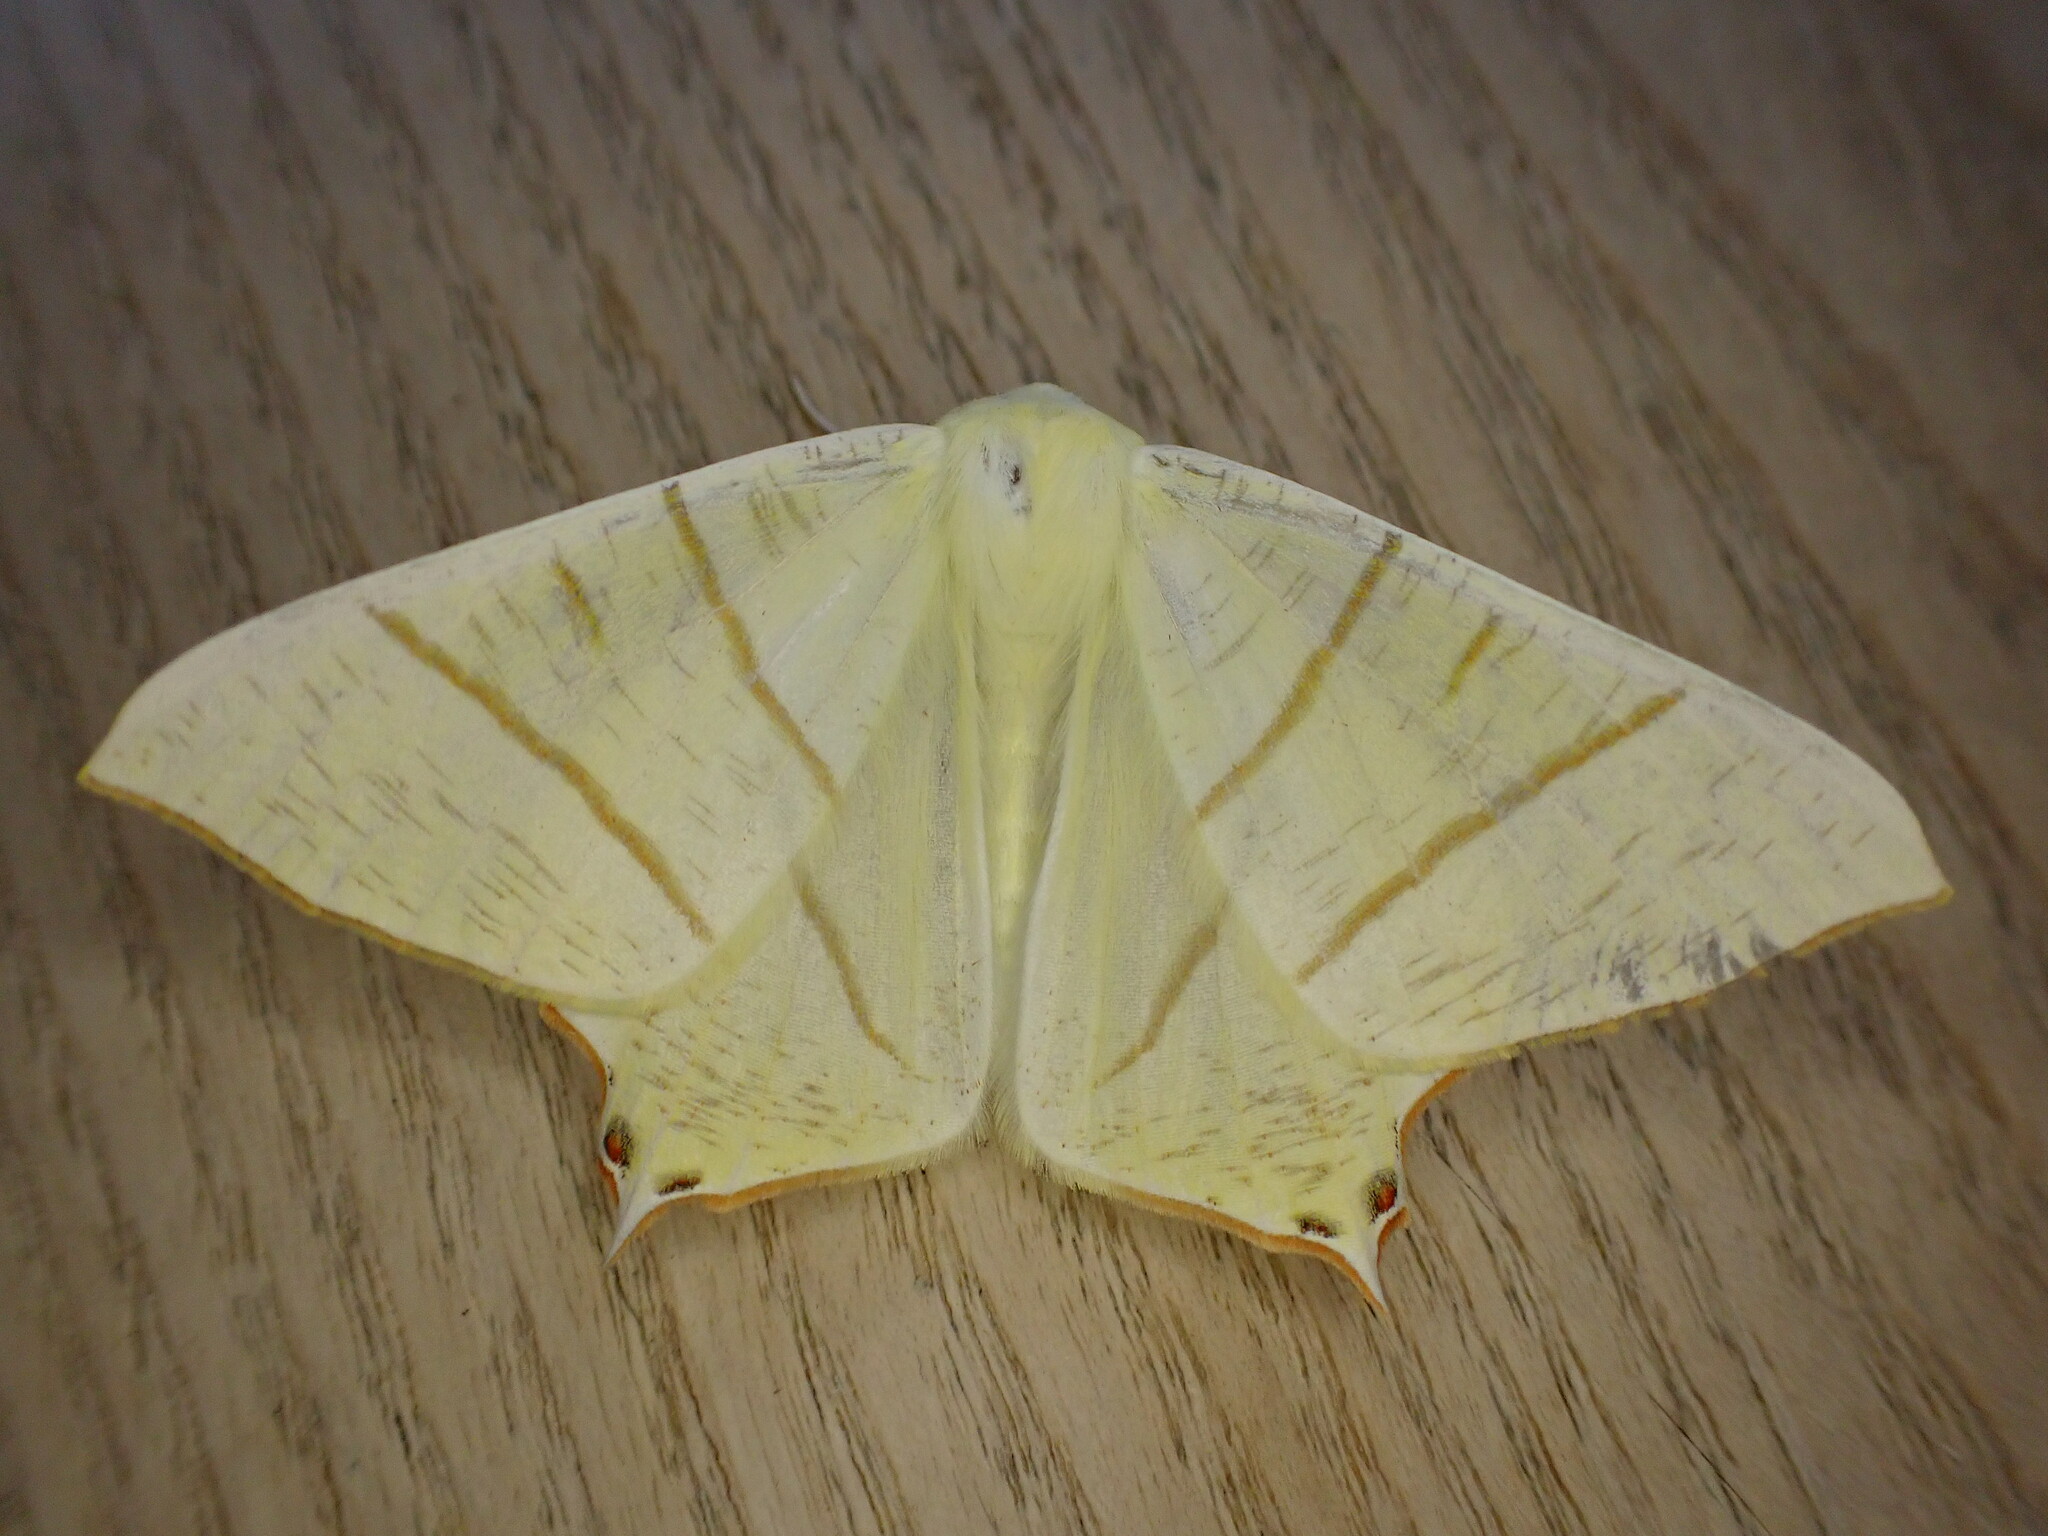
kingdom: Animalia
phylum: Arthropoda
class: Insecta
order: Lepidoptera
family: Geometridae
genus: Ourapteryx
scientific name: Ourapteryx sambucaria
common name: Swallow-tailed moth
